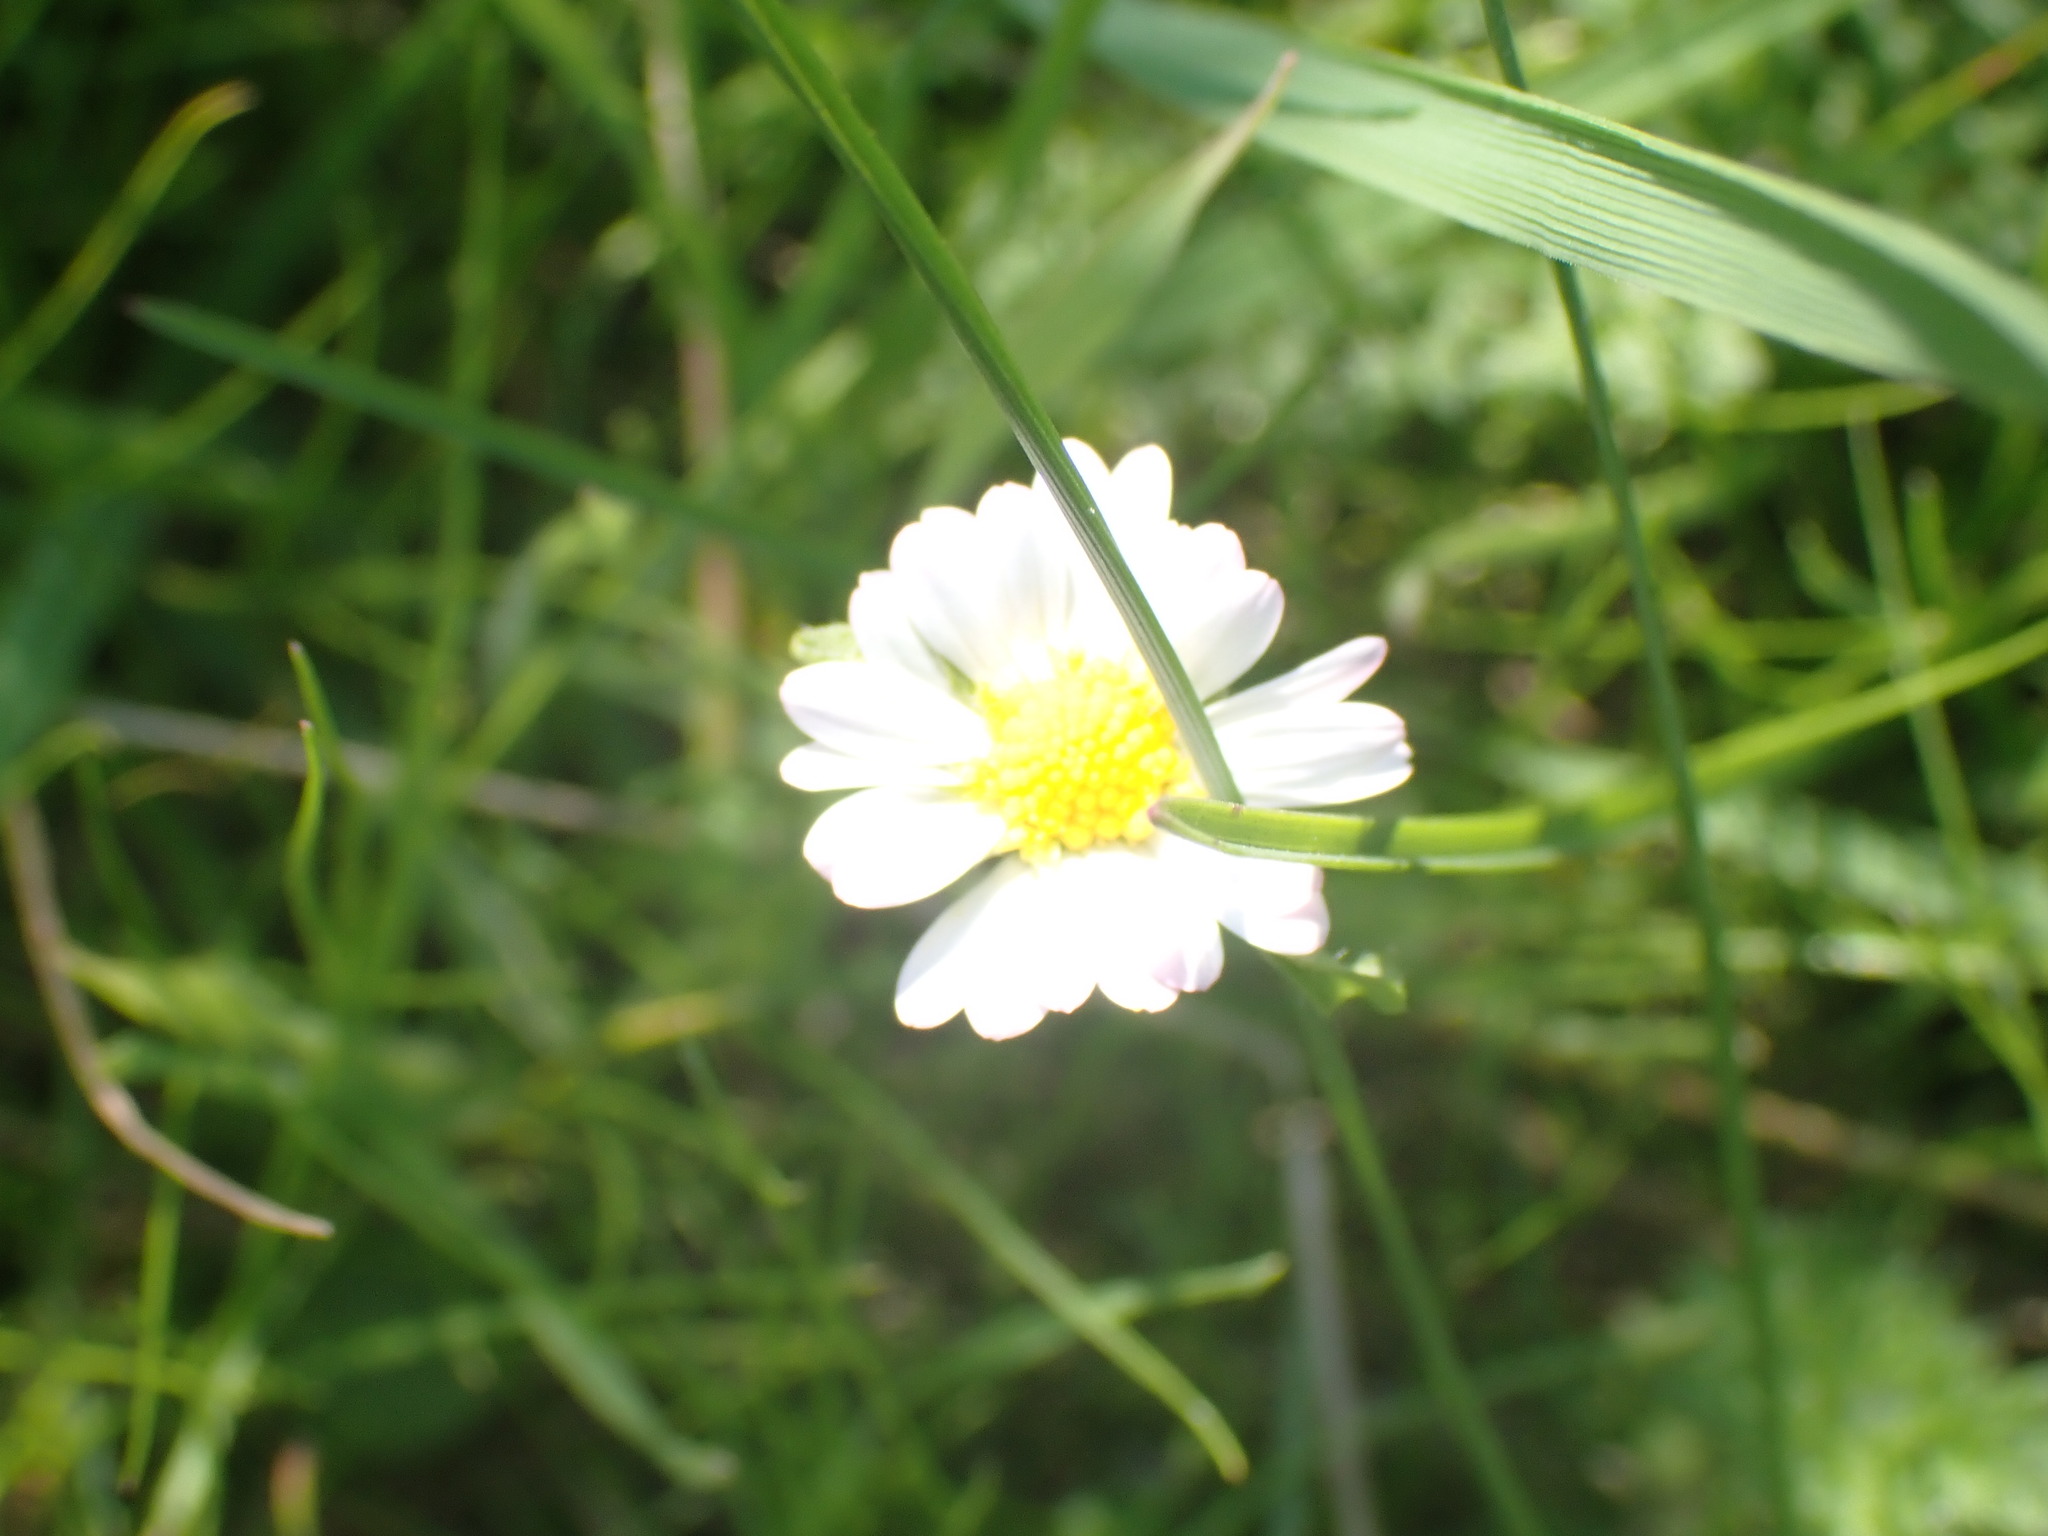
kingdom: Plantae
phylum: Tracheophyta
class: Magnoliopsida
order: Asterales
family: Asteraceae
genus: Bellis
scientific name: Bellis perennis
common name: Lawndaisy
